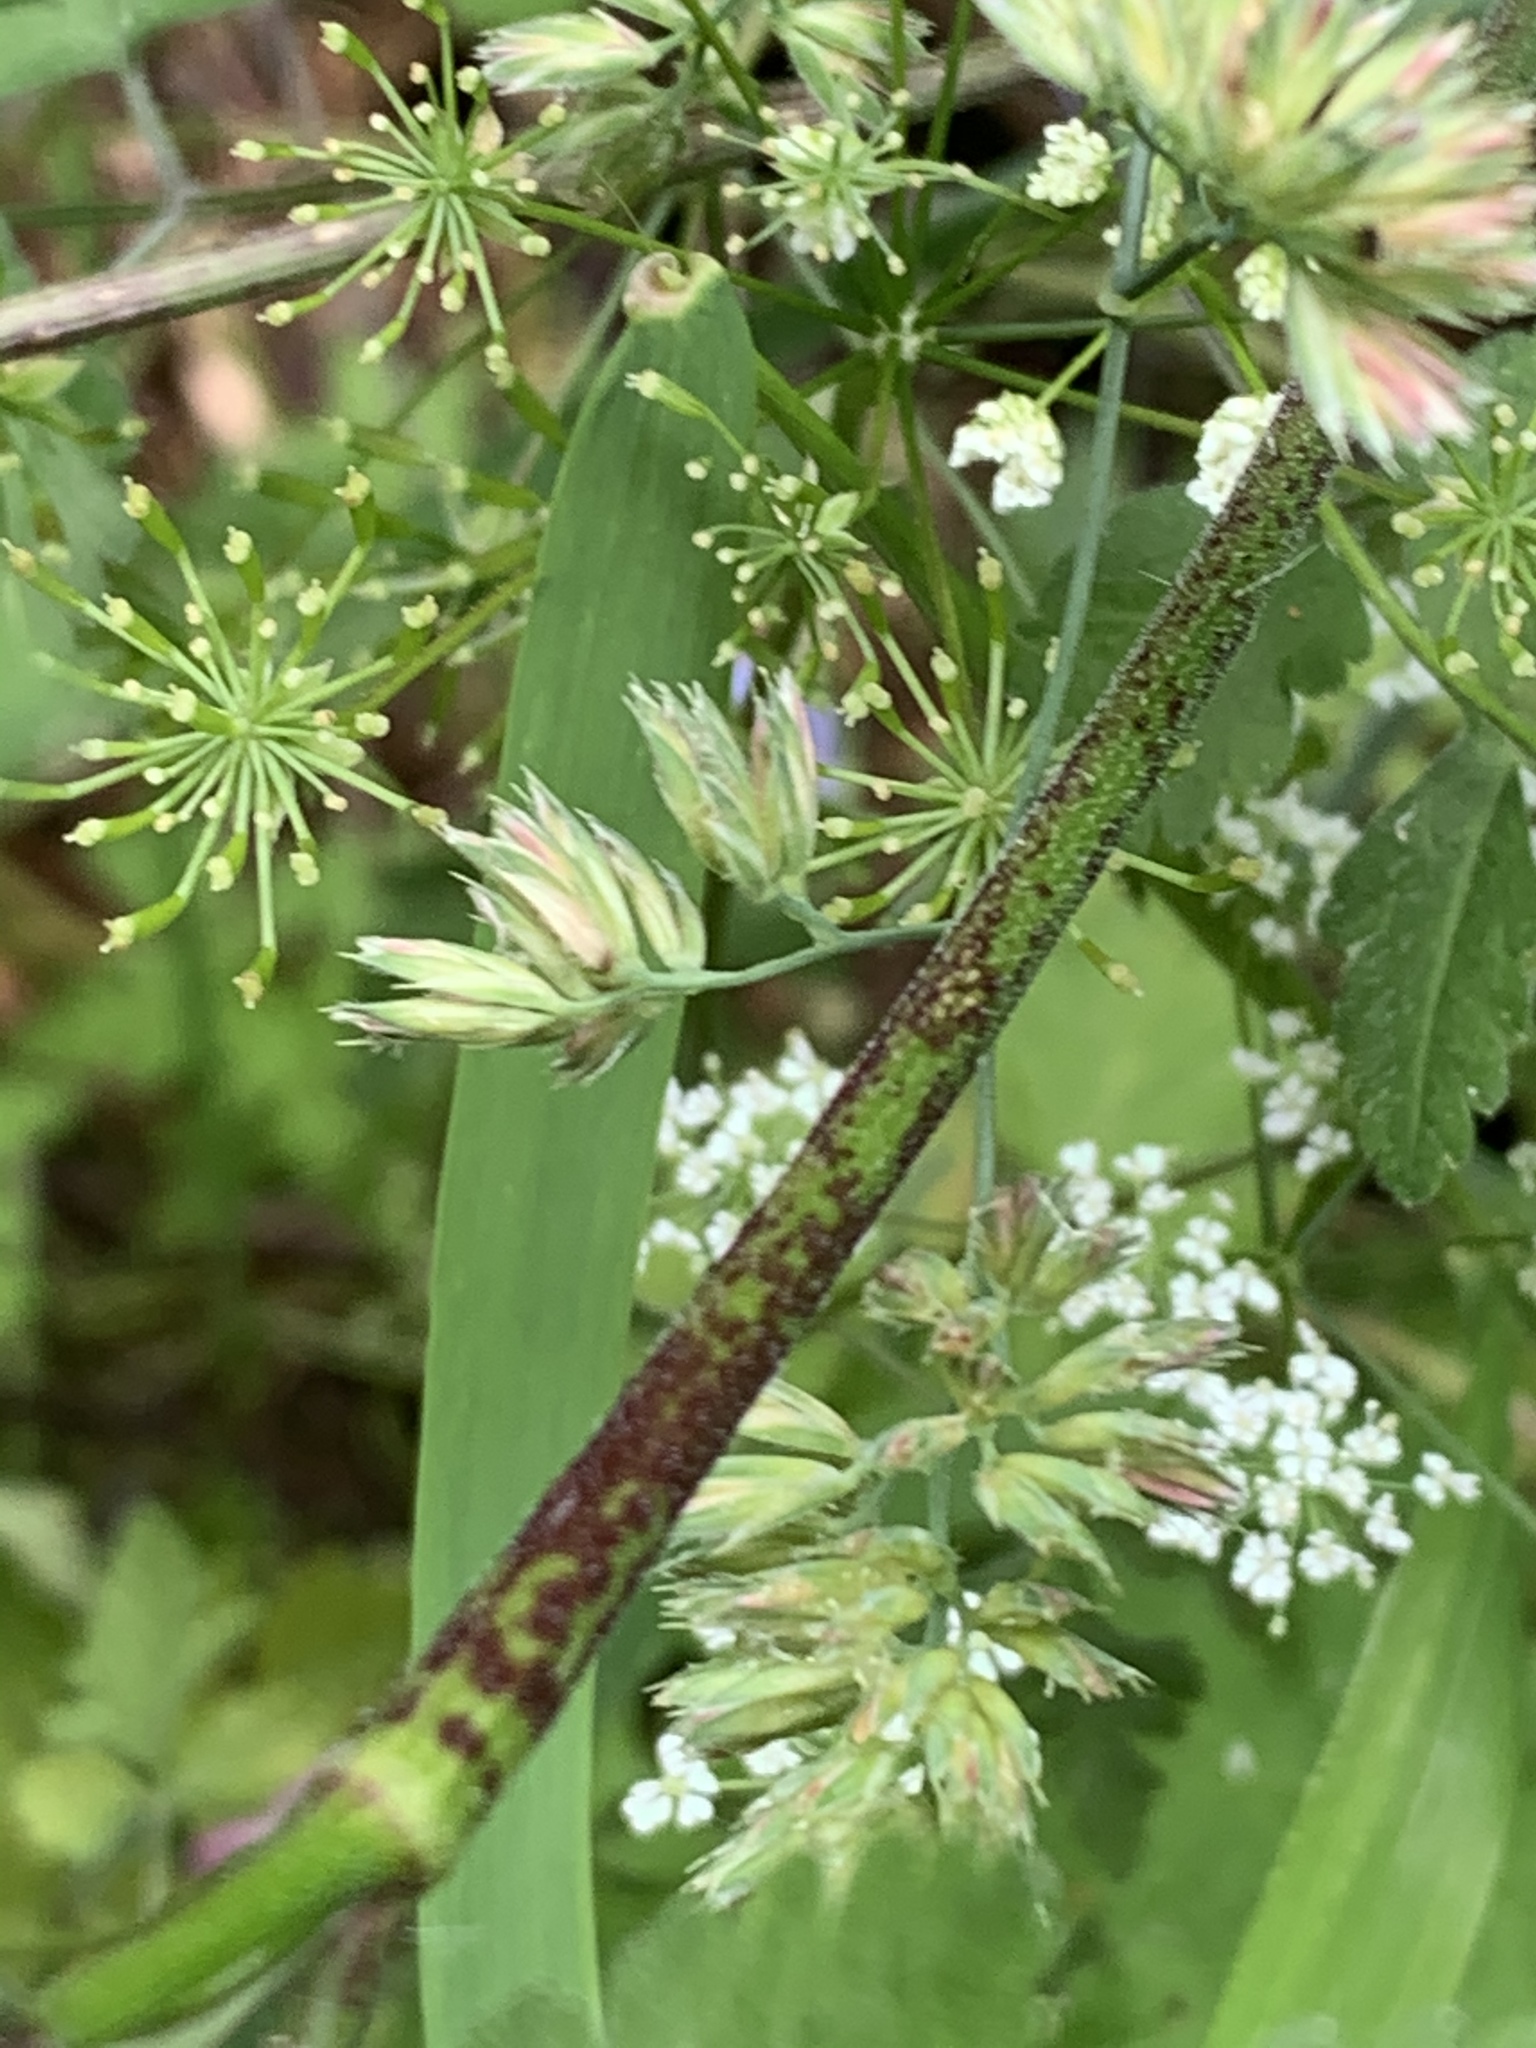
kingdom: Plantae
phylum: Tracheophyta
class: Magnoliopsida
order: Apiales
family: Apiaceae
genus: Chaerophyllum
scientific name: Chaerophyllum temulum
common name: Rough chervil
